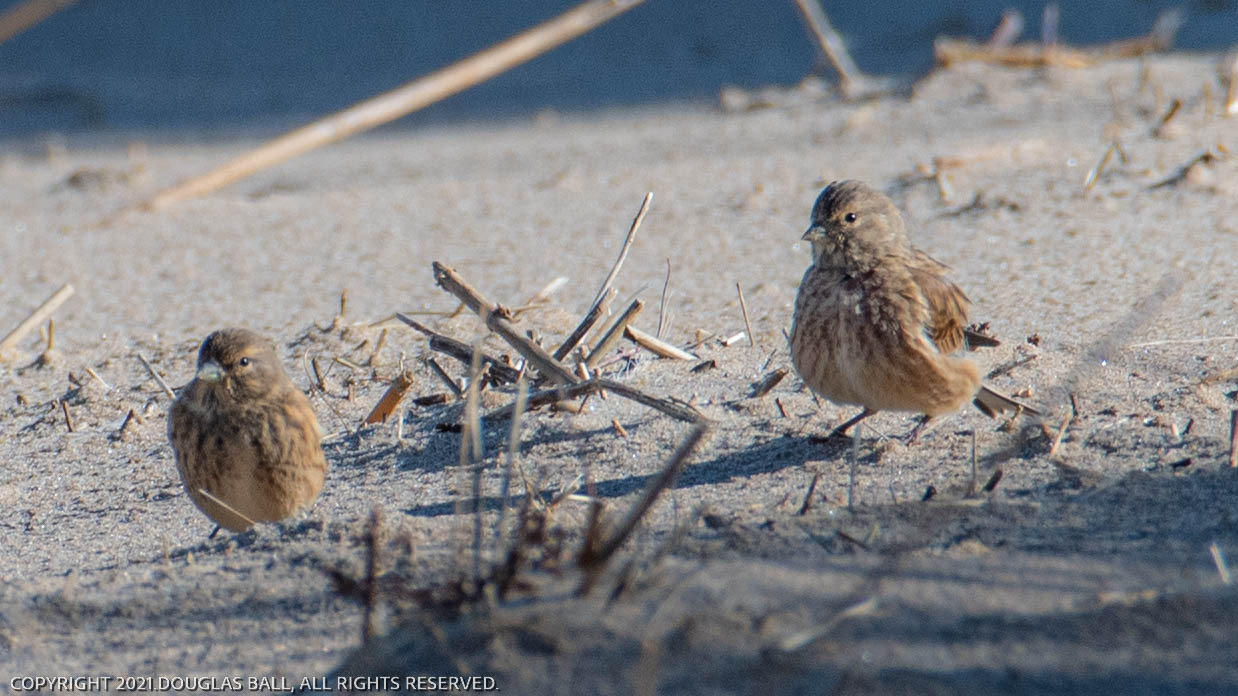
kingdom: Animalia
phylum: Chordata
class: Aves
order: Passeriformes
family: Fringillidae
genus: Linaria
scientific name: Linaria cannabina
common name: Common linnet
